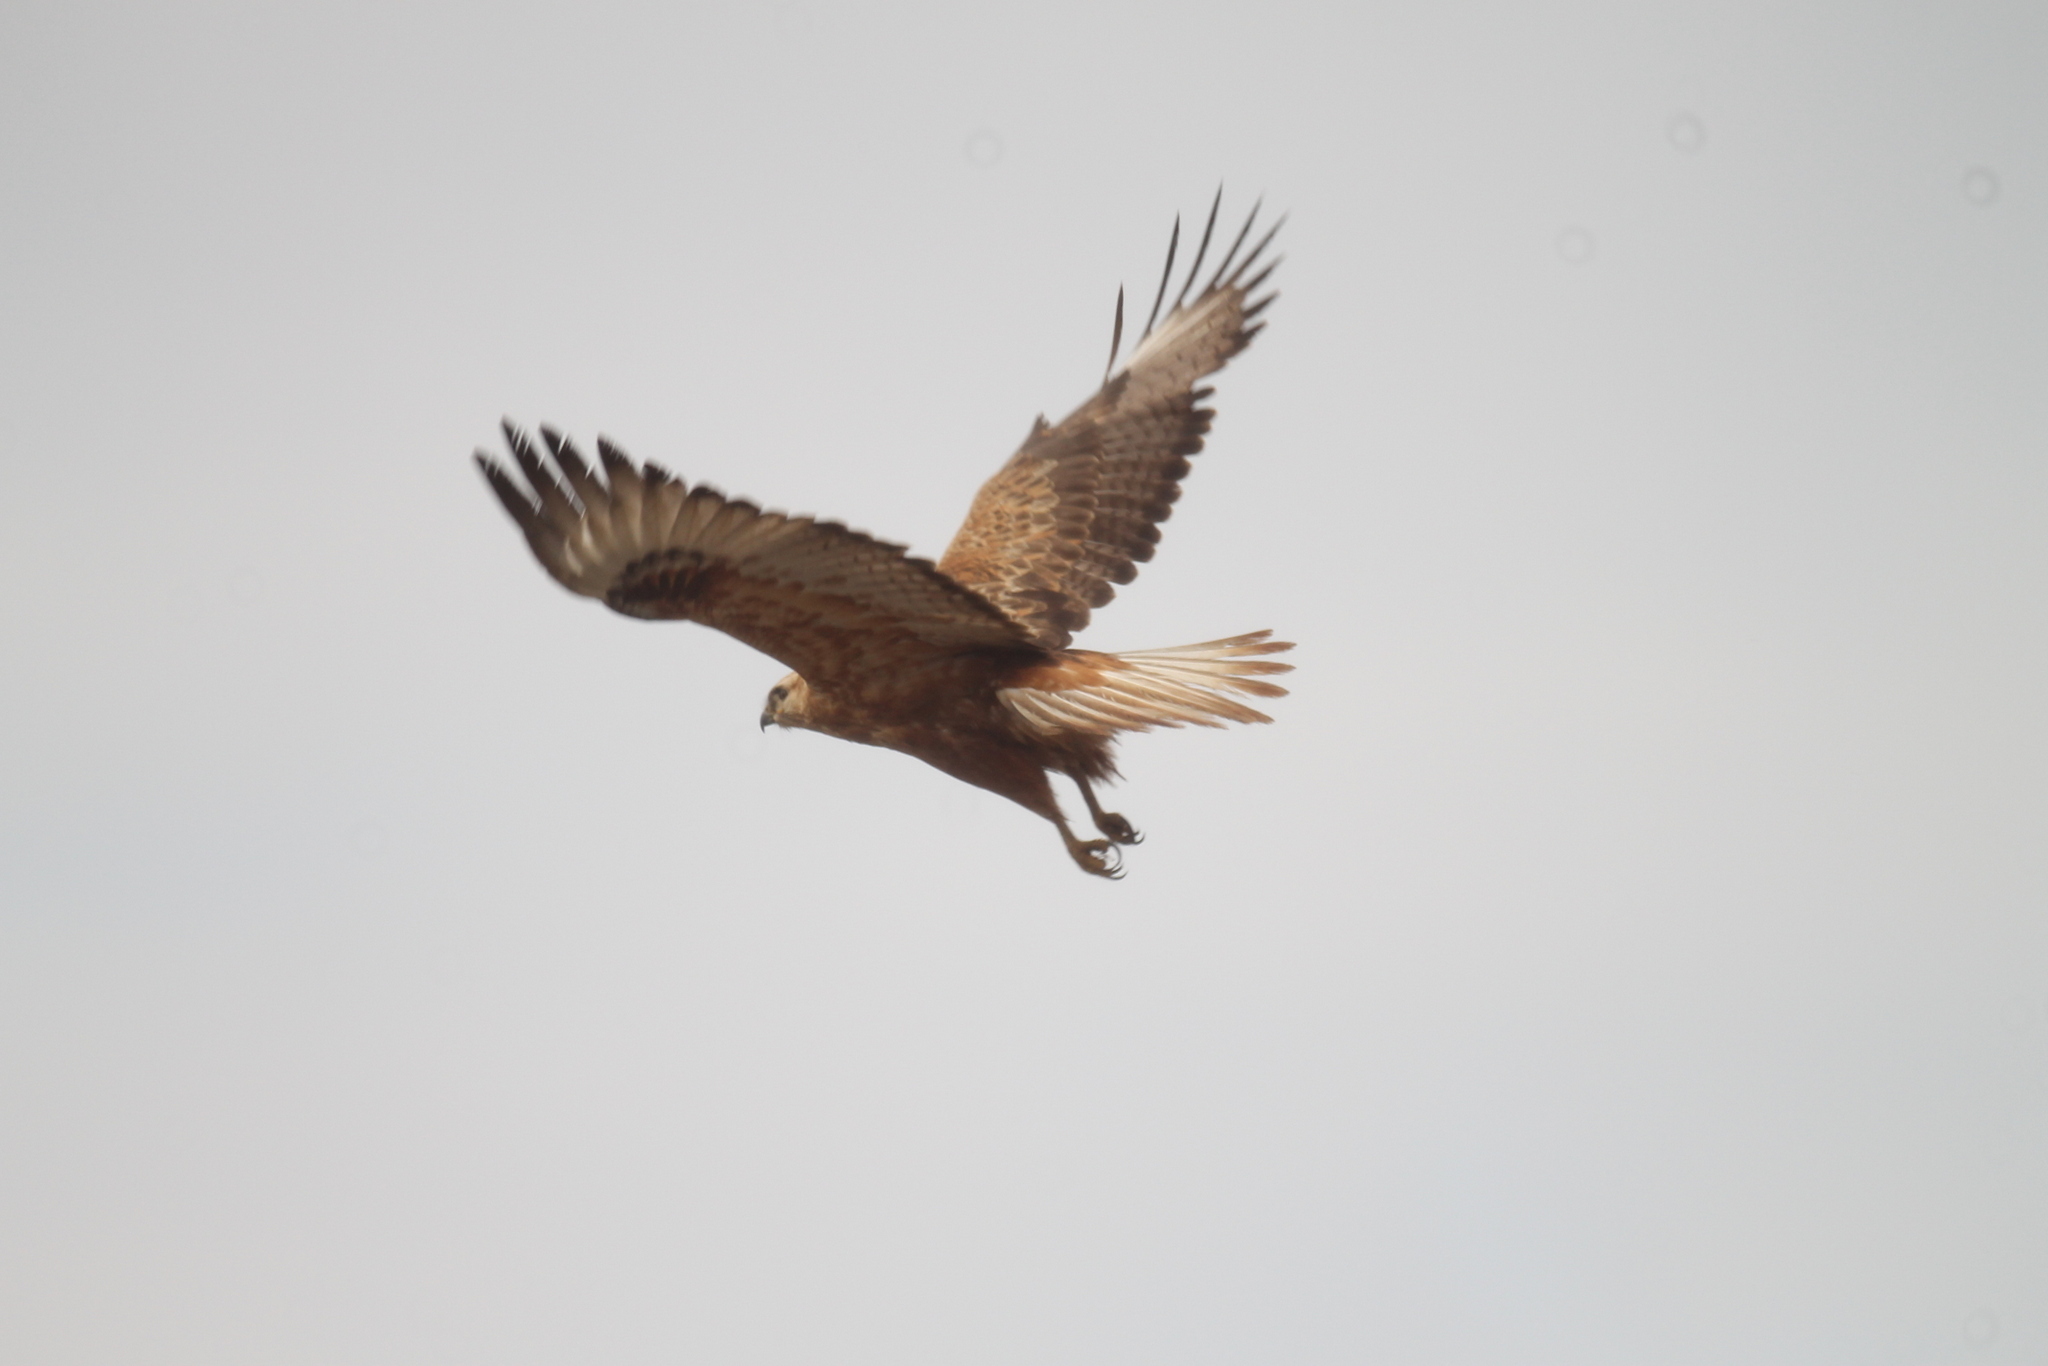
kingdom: Animalia
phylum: Chordata
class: Aves
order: Accipitriformes
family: Accipitridae
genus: Buteo
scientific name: Buteo rufinus
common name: Long-legged buzzard
